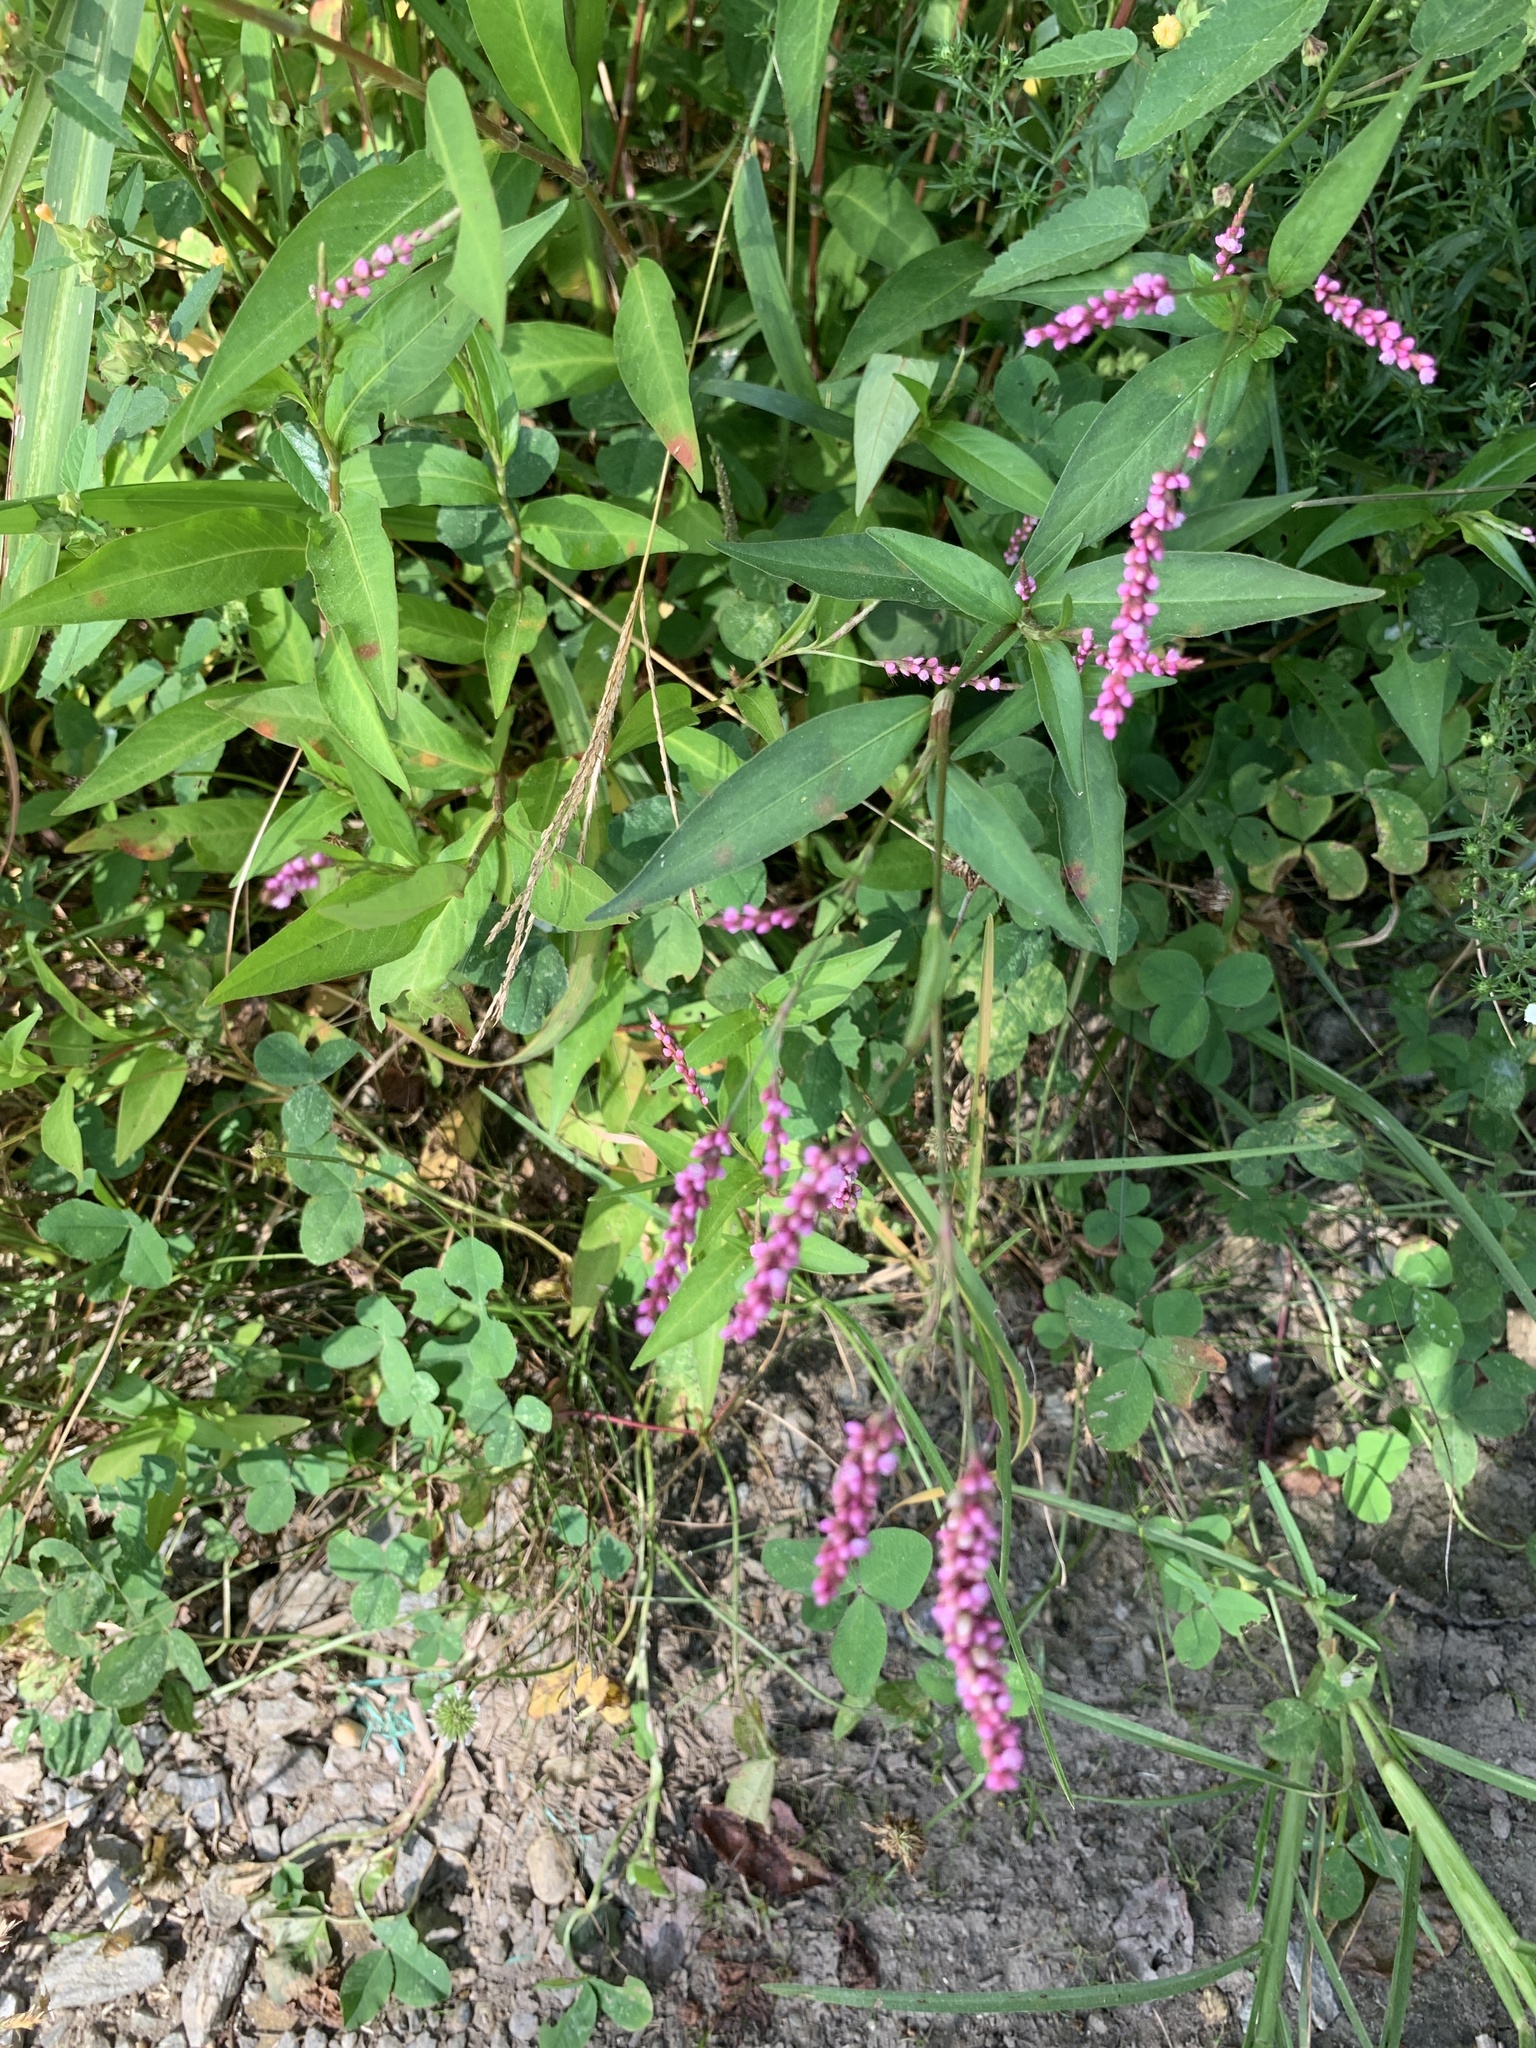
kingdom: Plantae
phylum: Tracheophyta
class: Magnoliopsida
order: Caryophyllales
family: Polygonaceae
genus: Persicaria
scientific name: Persicaria longiseta
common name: Bristly lady's-thumb
